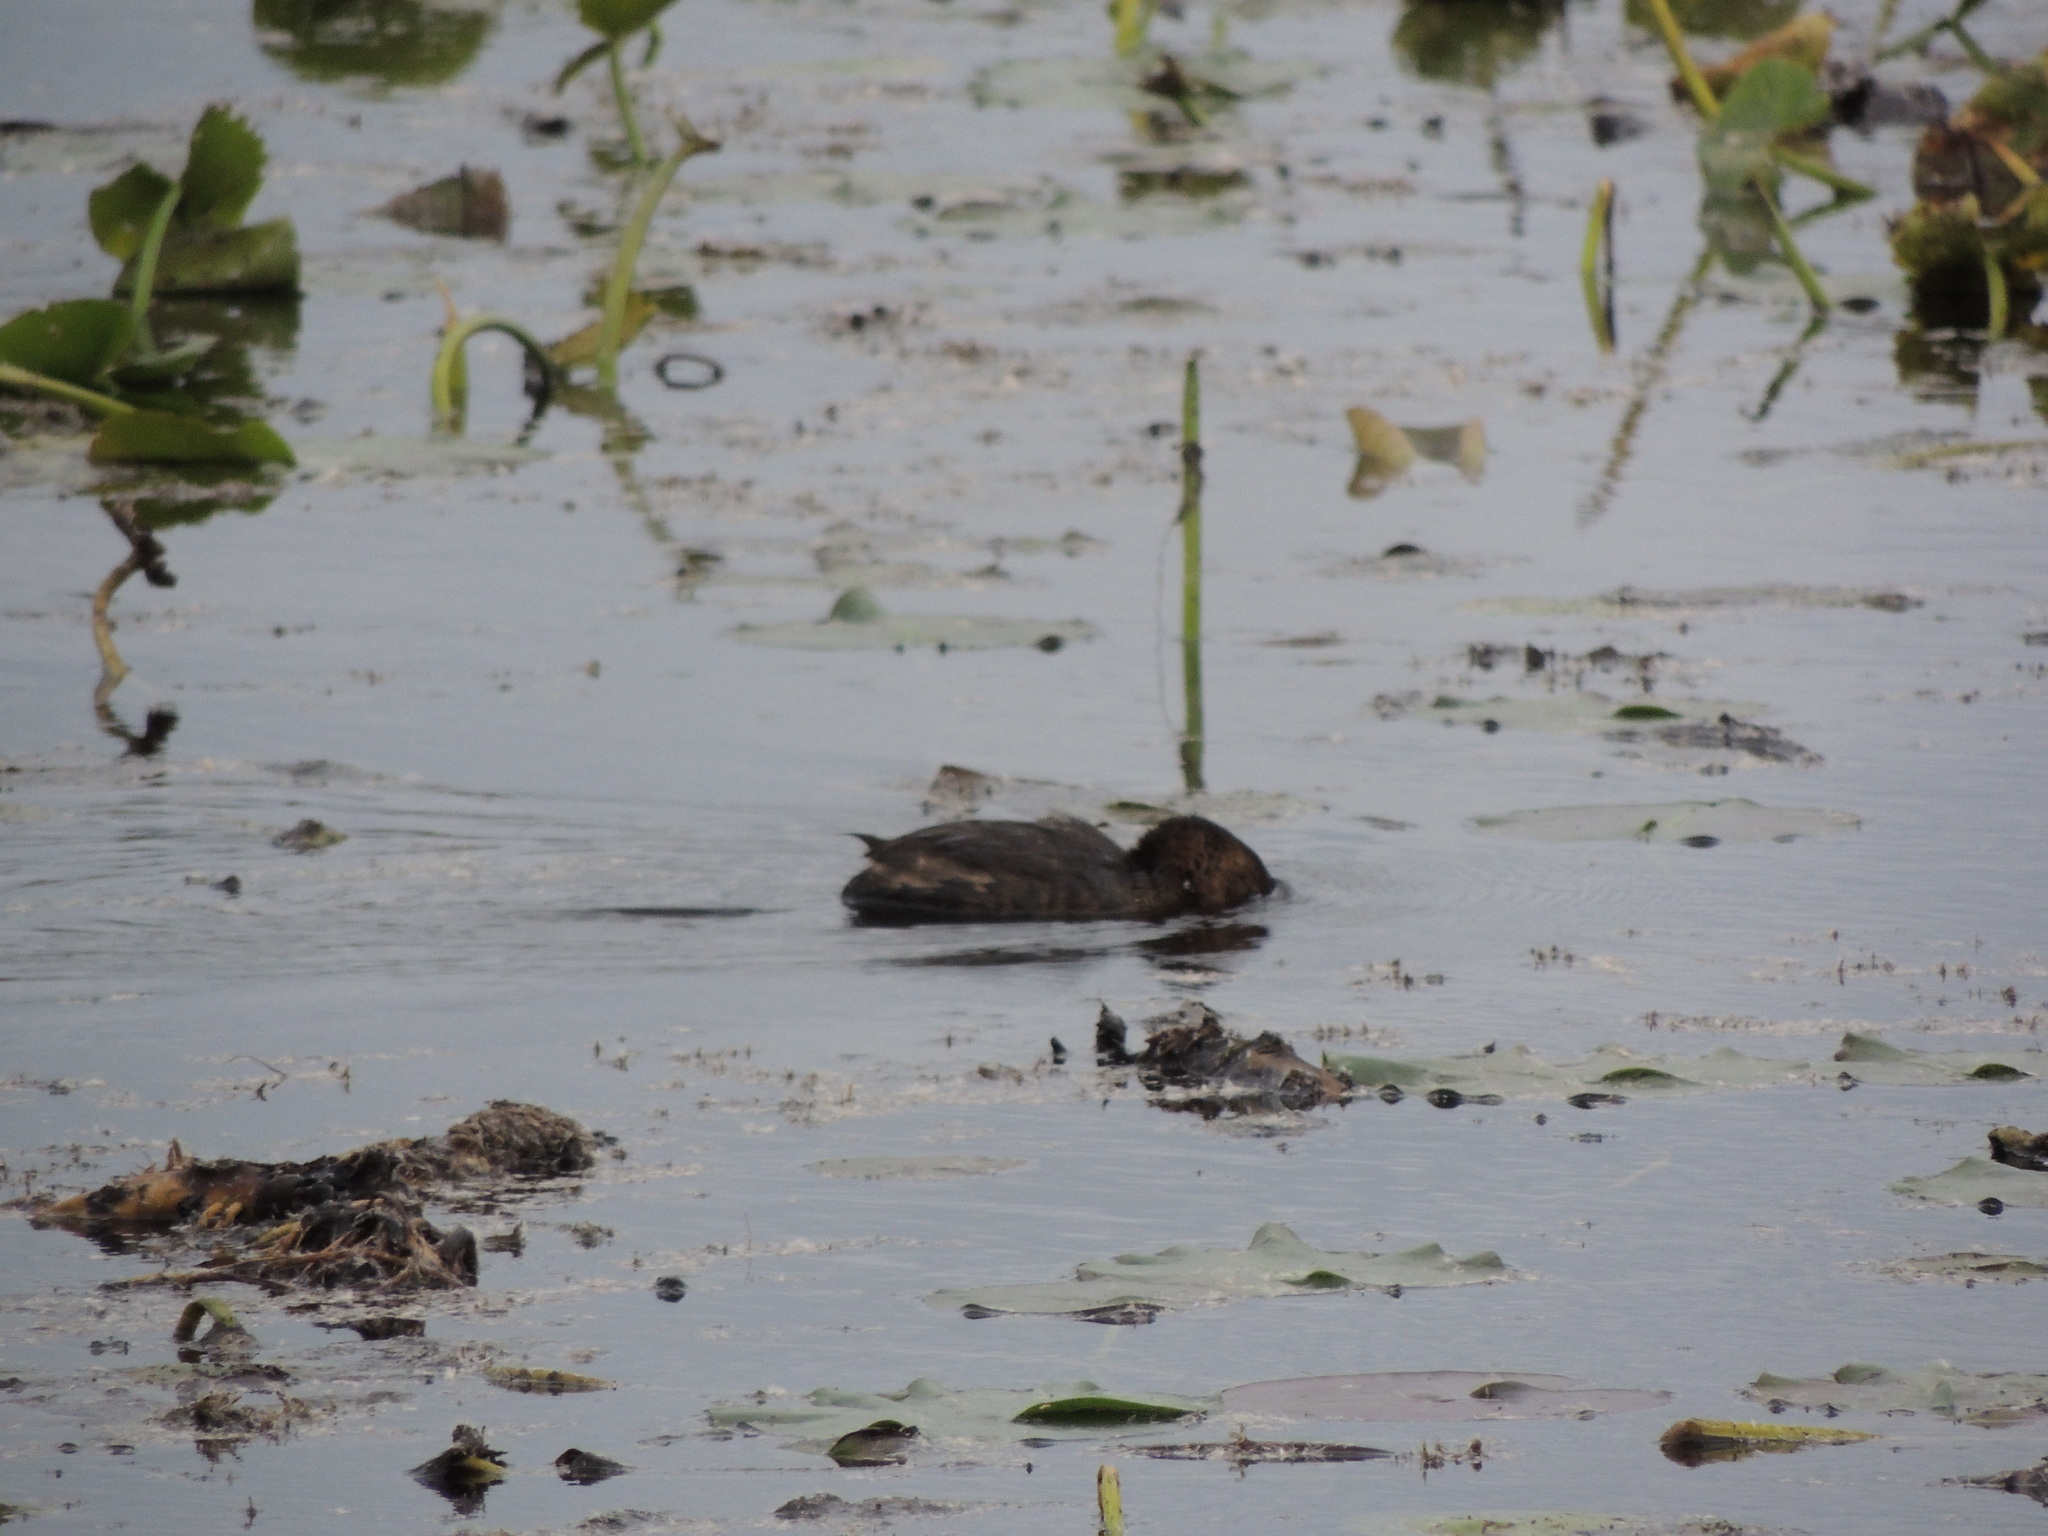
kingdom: Animalia
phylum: Chordata
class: Aves
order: Podicipediformes
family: Podicipedidae
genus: Podilymbus
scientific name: Podilymbus podiceps
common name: Pied-billed grebe
